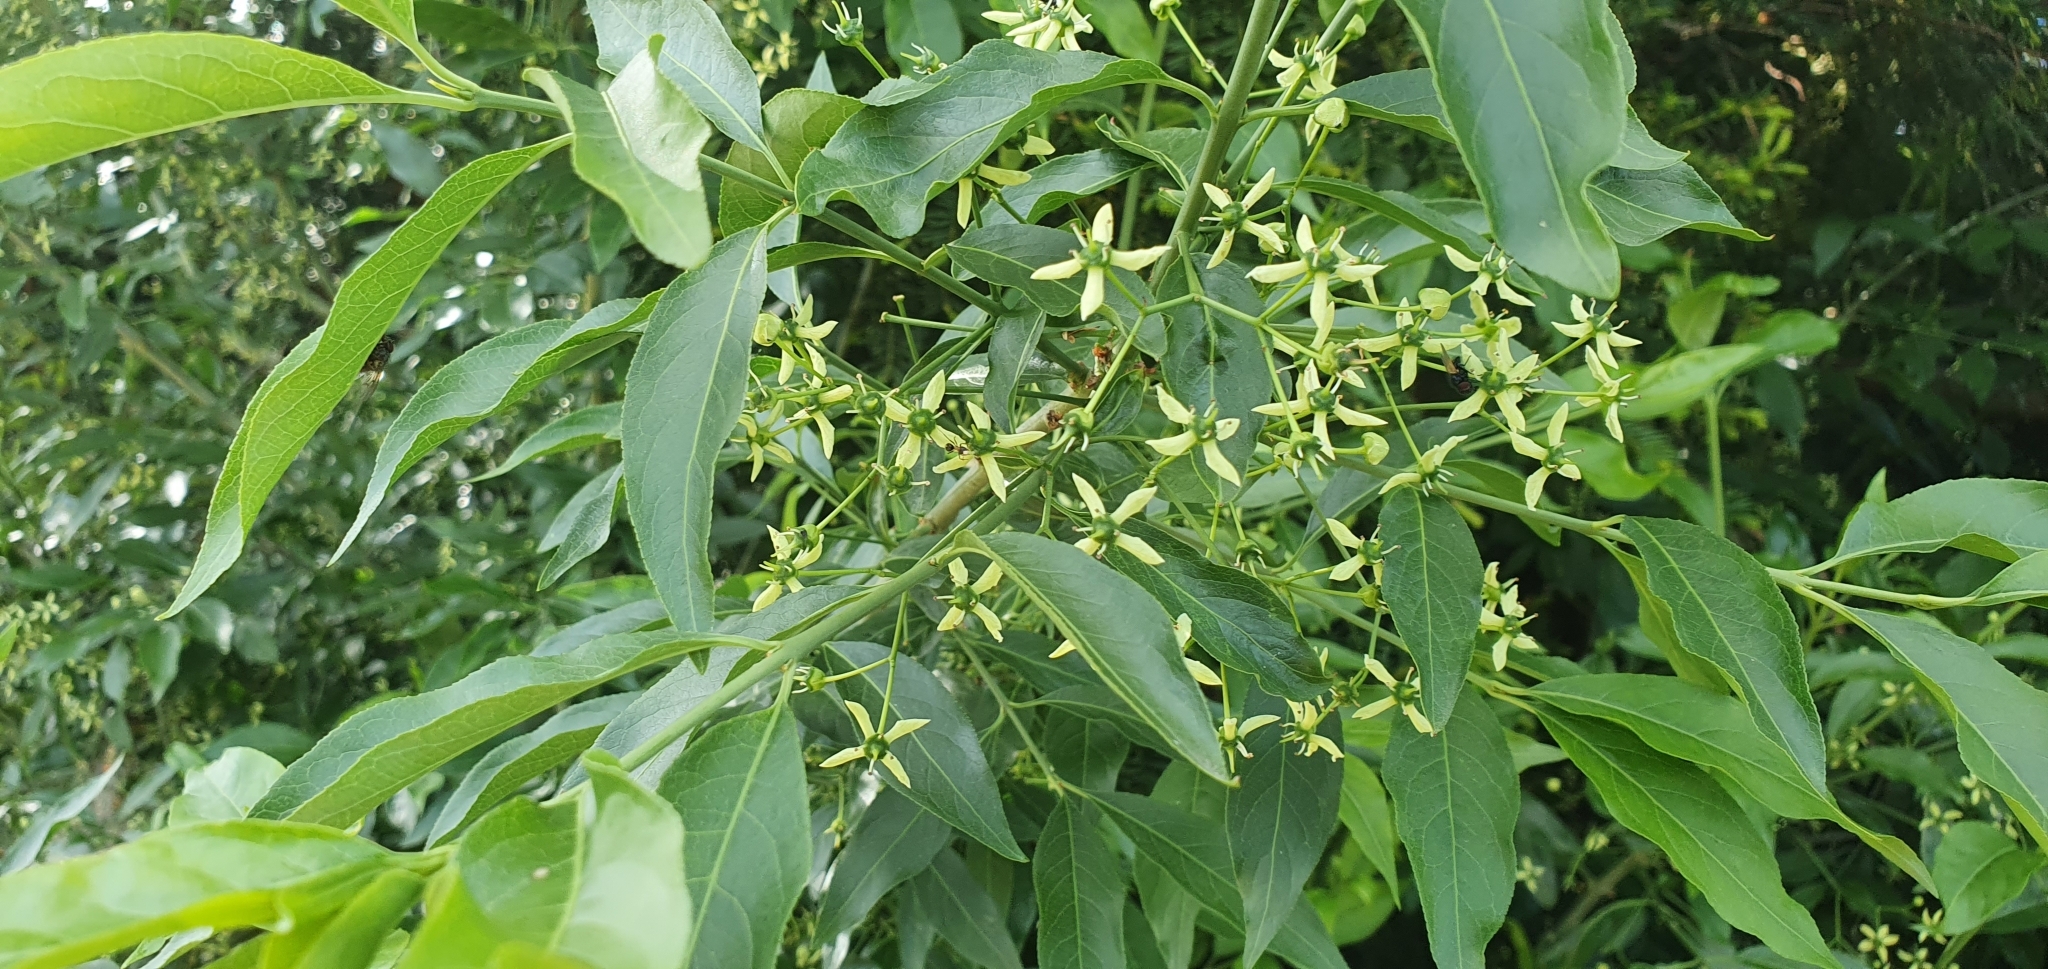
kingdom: Plantae
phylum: Tracheophyta
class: Magnoliopsida
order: Celastrales
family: Celastraceae
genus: Euonymus
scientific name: Euonymus europaeus
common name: Spindle
